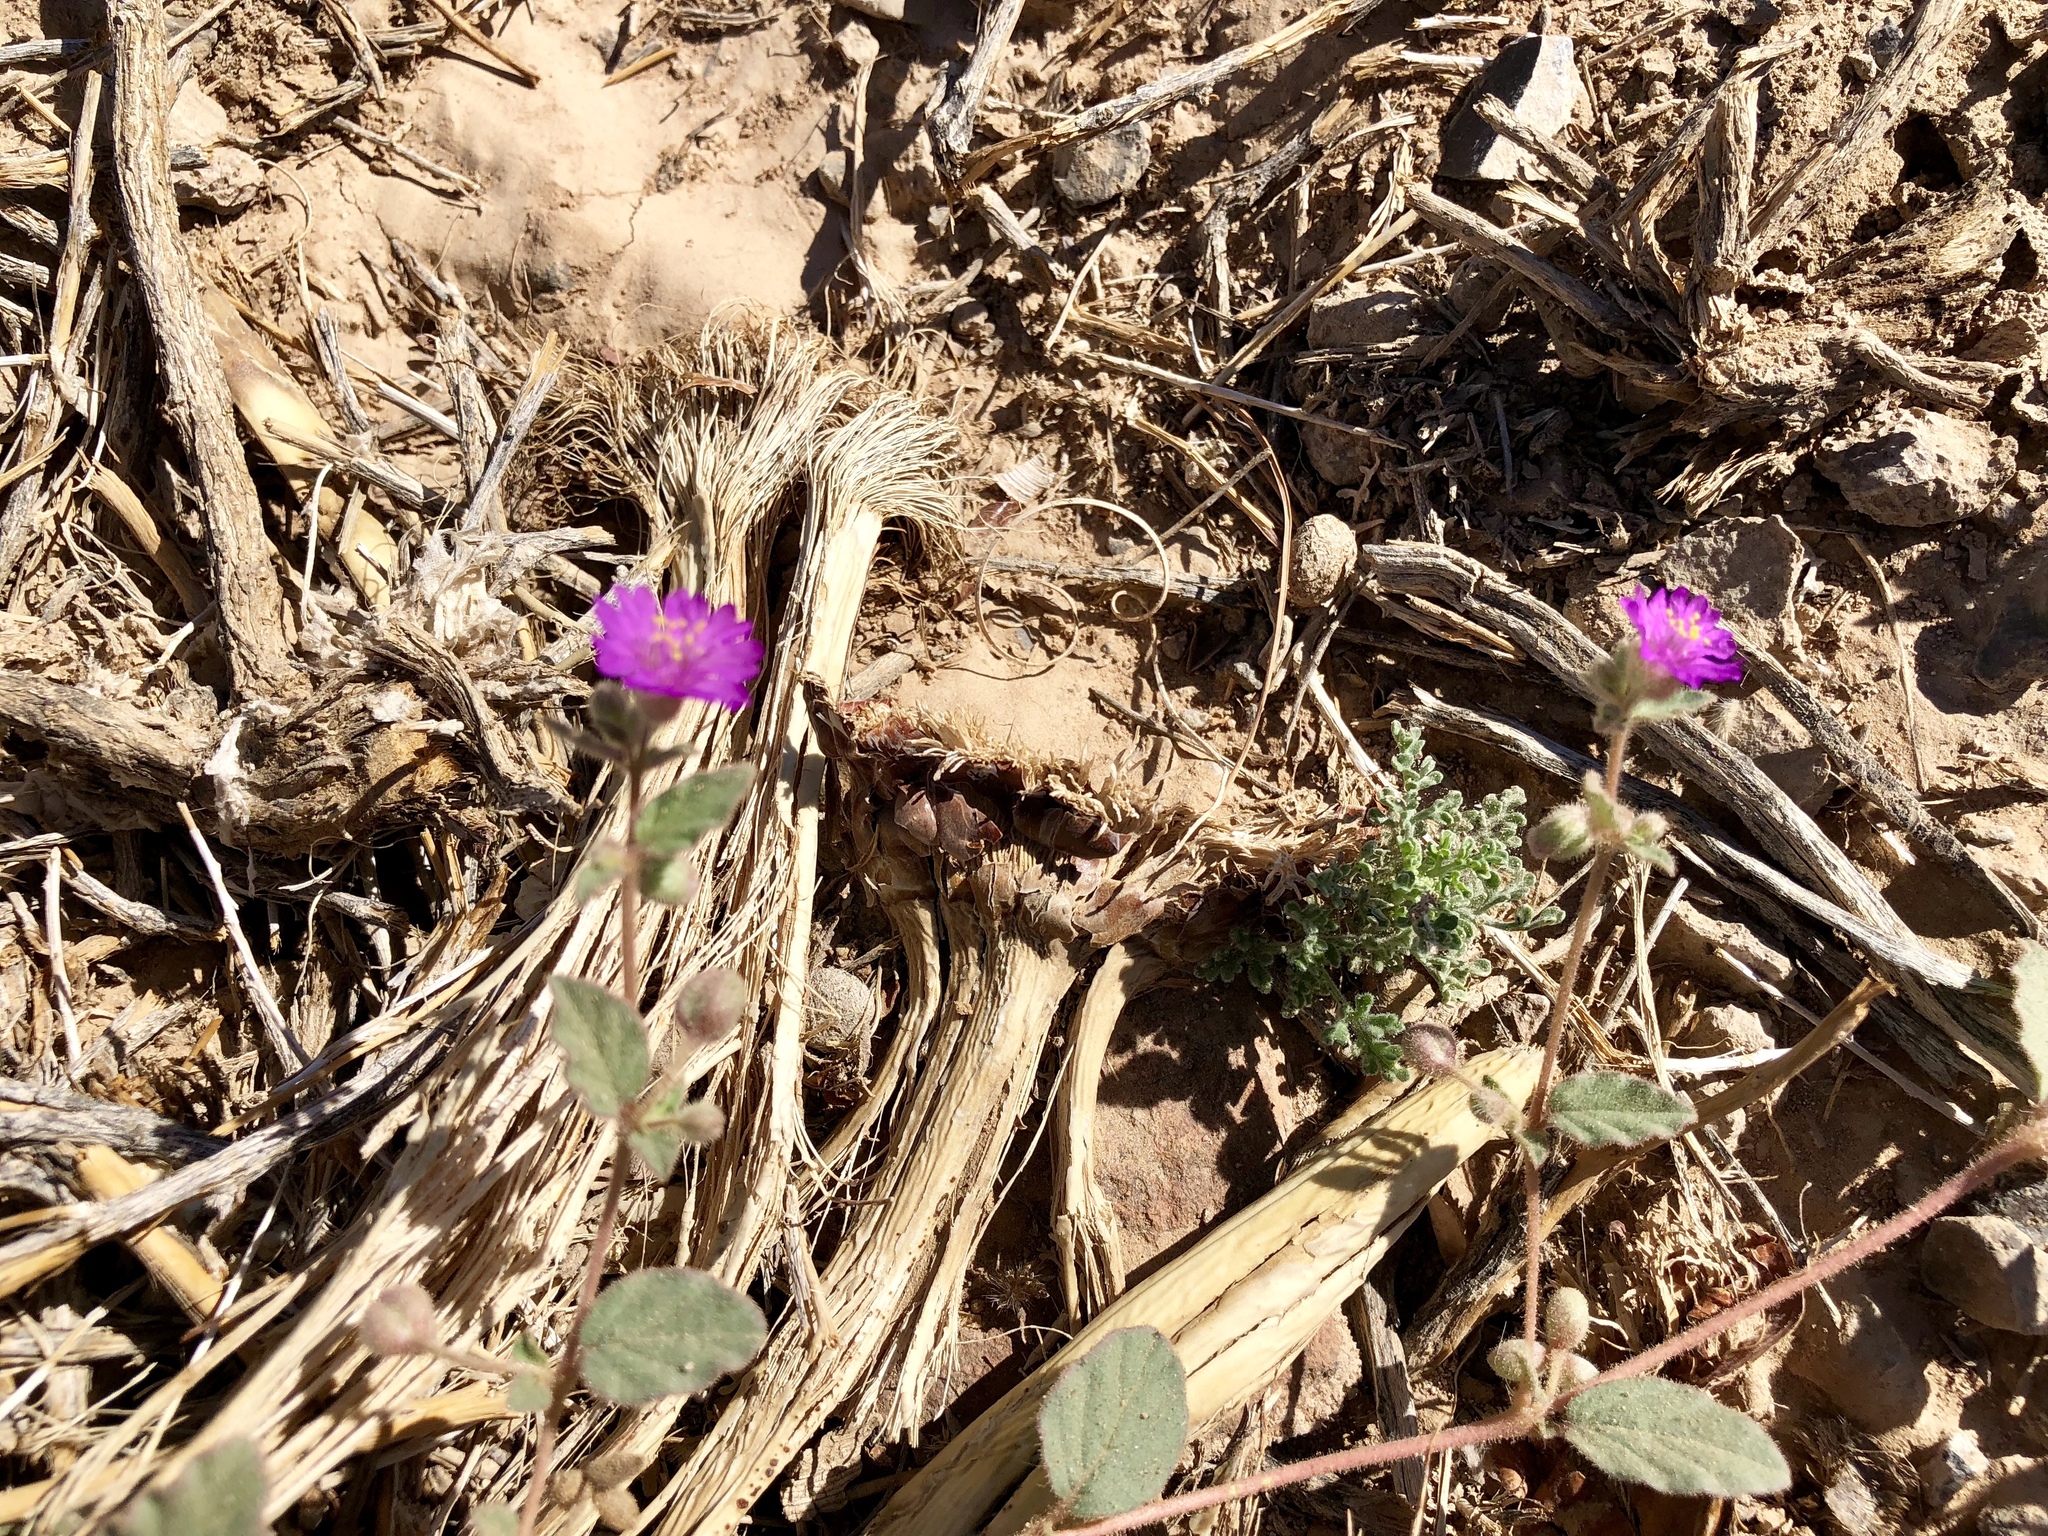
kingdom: Plantae
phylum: Tracheophyta
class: Magnoliopsida
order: Caryophyllales
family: Nyctaginaceae
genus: Allionia
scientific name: Allionia incarnata
